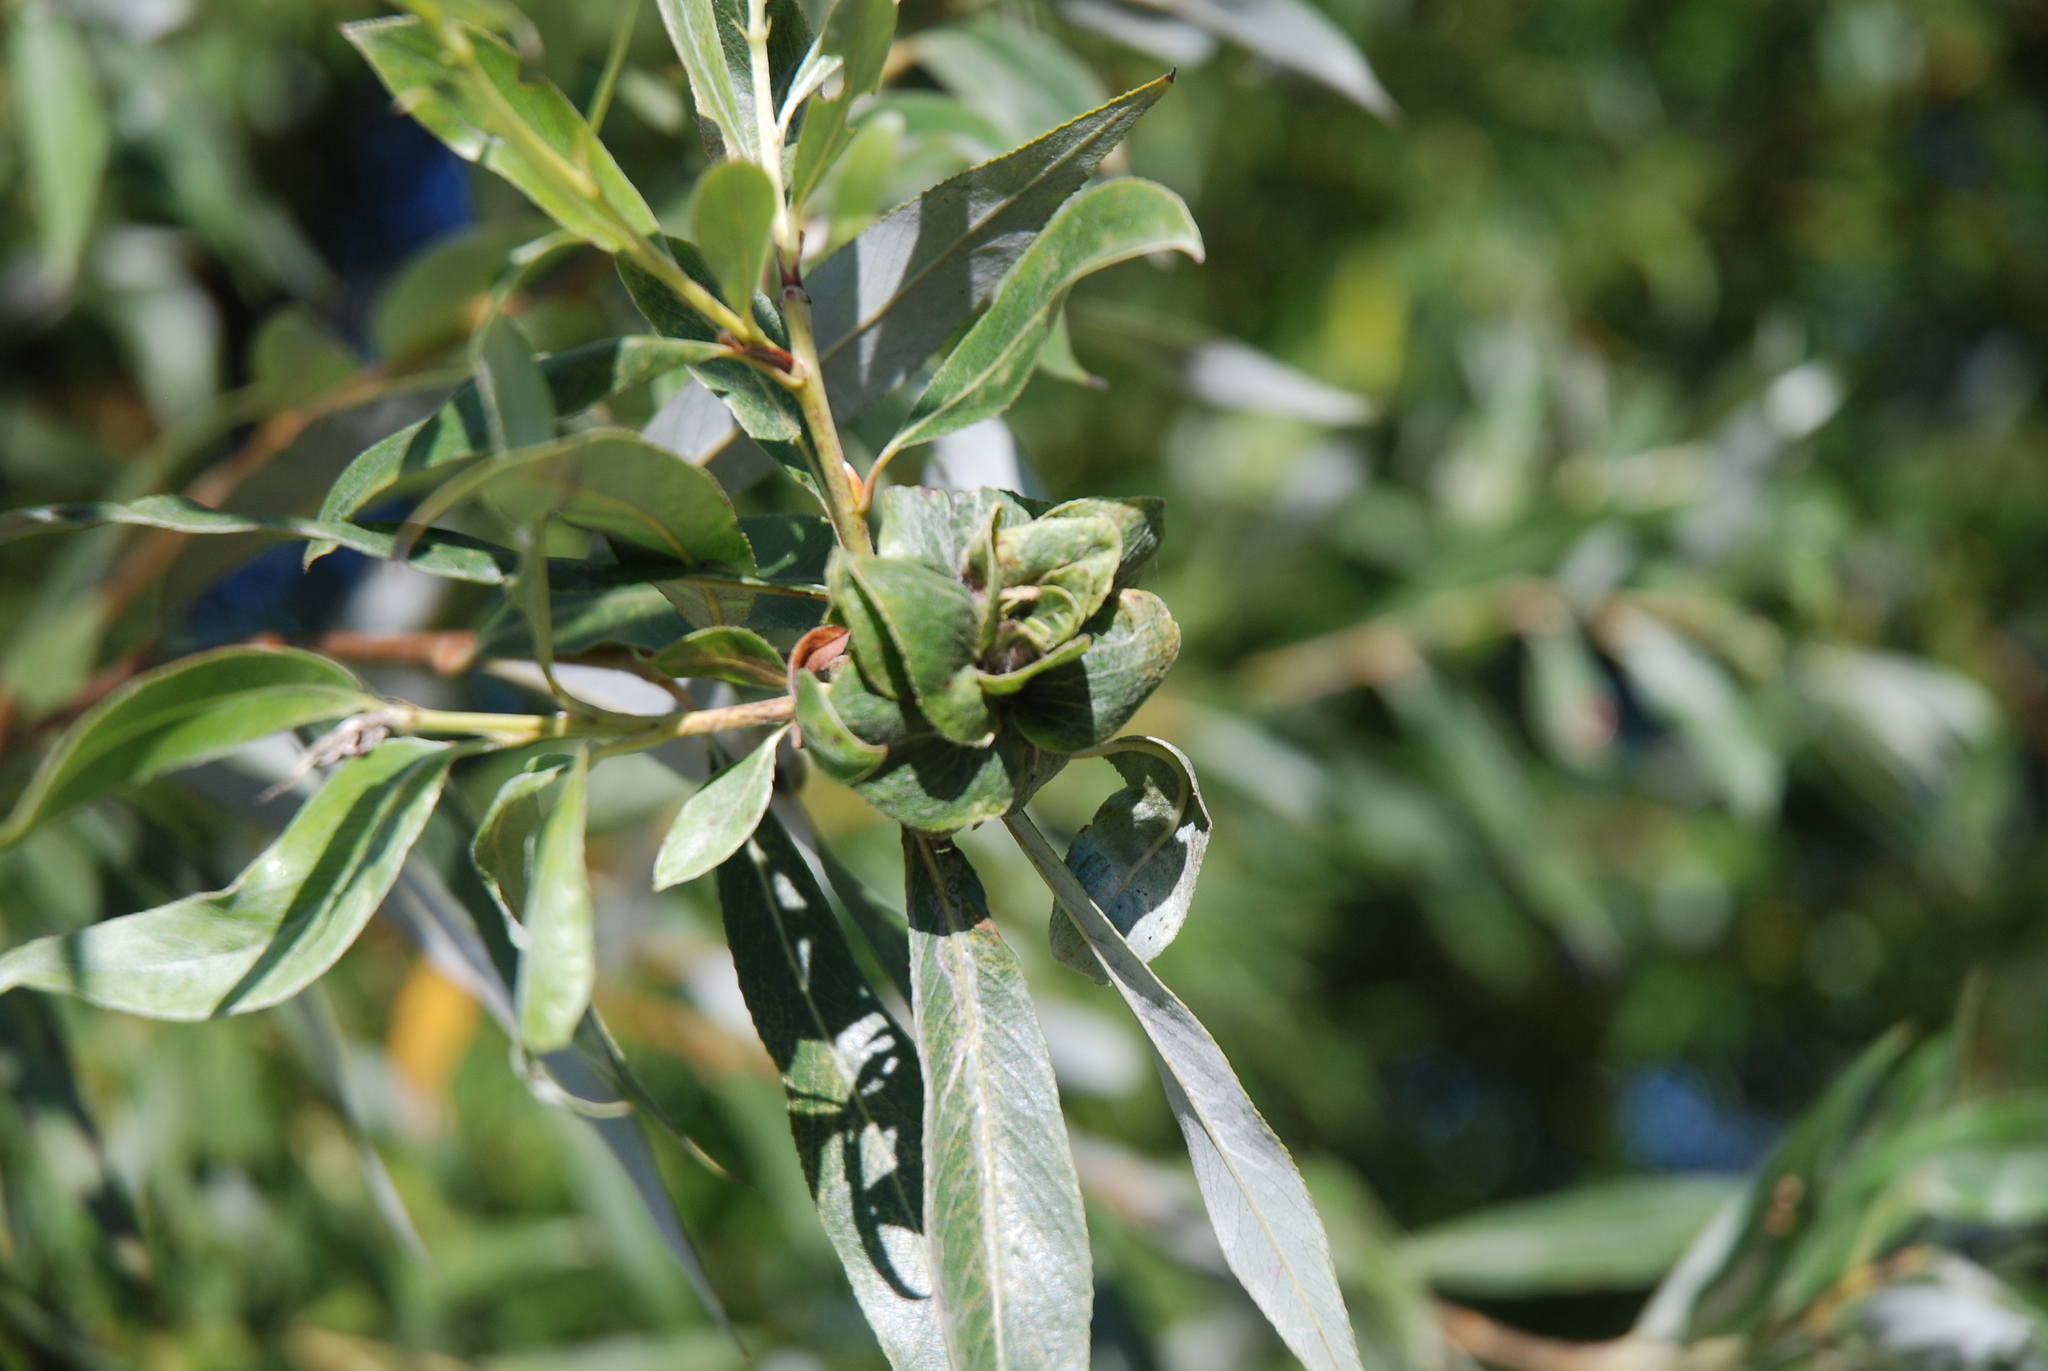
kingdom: Animalia
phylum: Arthropoda
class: Insecta
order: Diptera
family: Cecidomyiidae
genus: Rabdophaga
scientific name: Rabdophaga rosaria
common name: Willow rose gall midge
